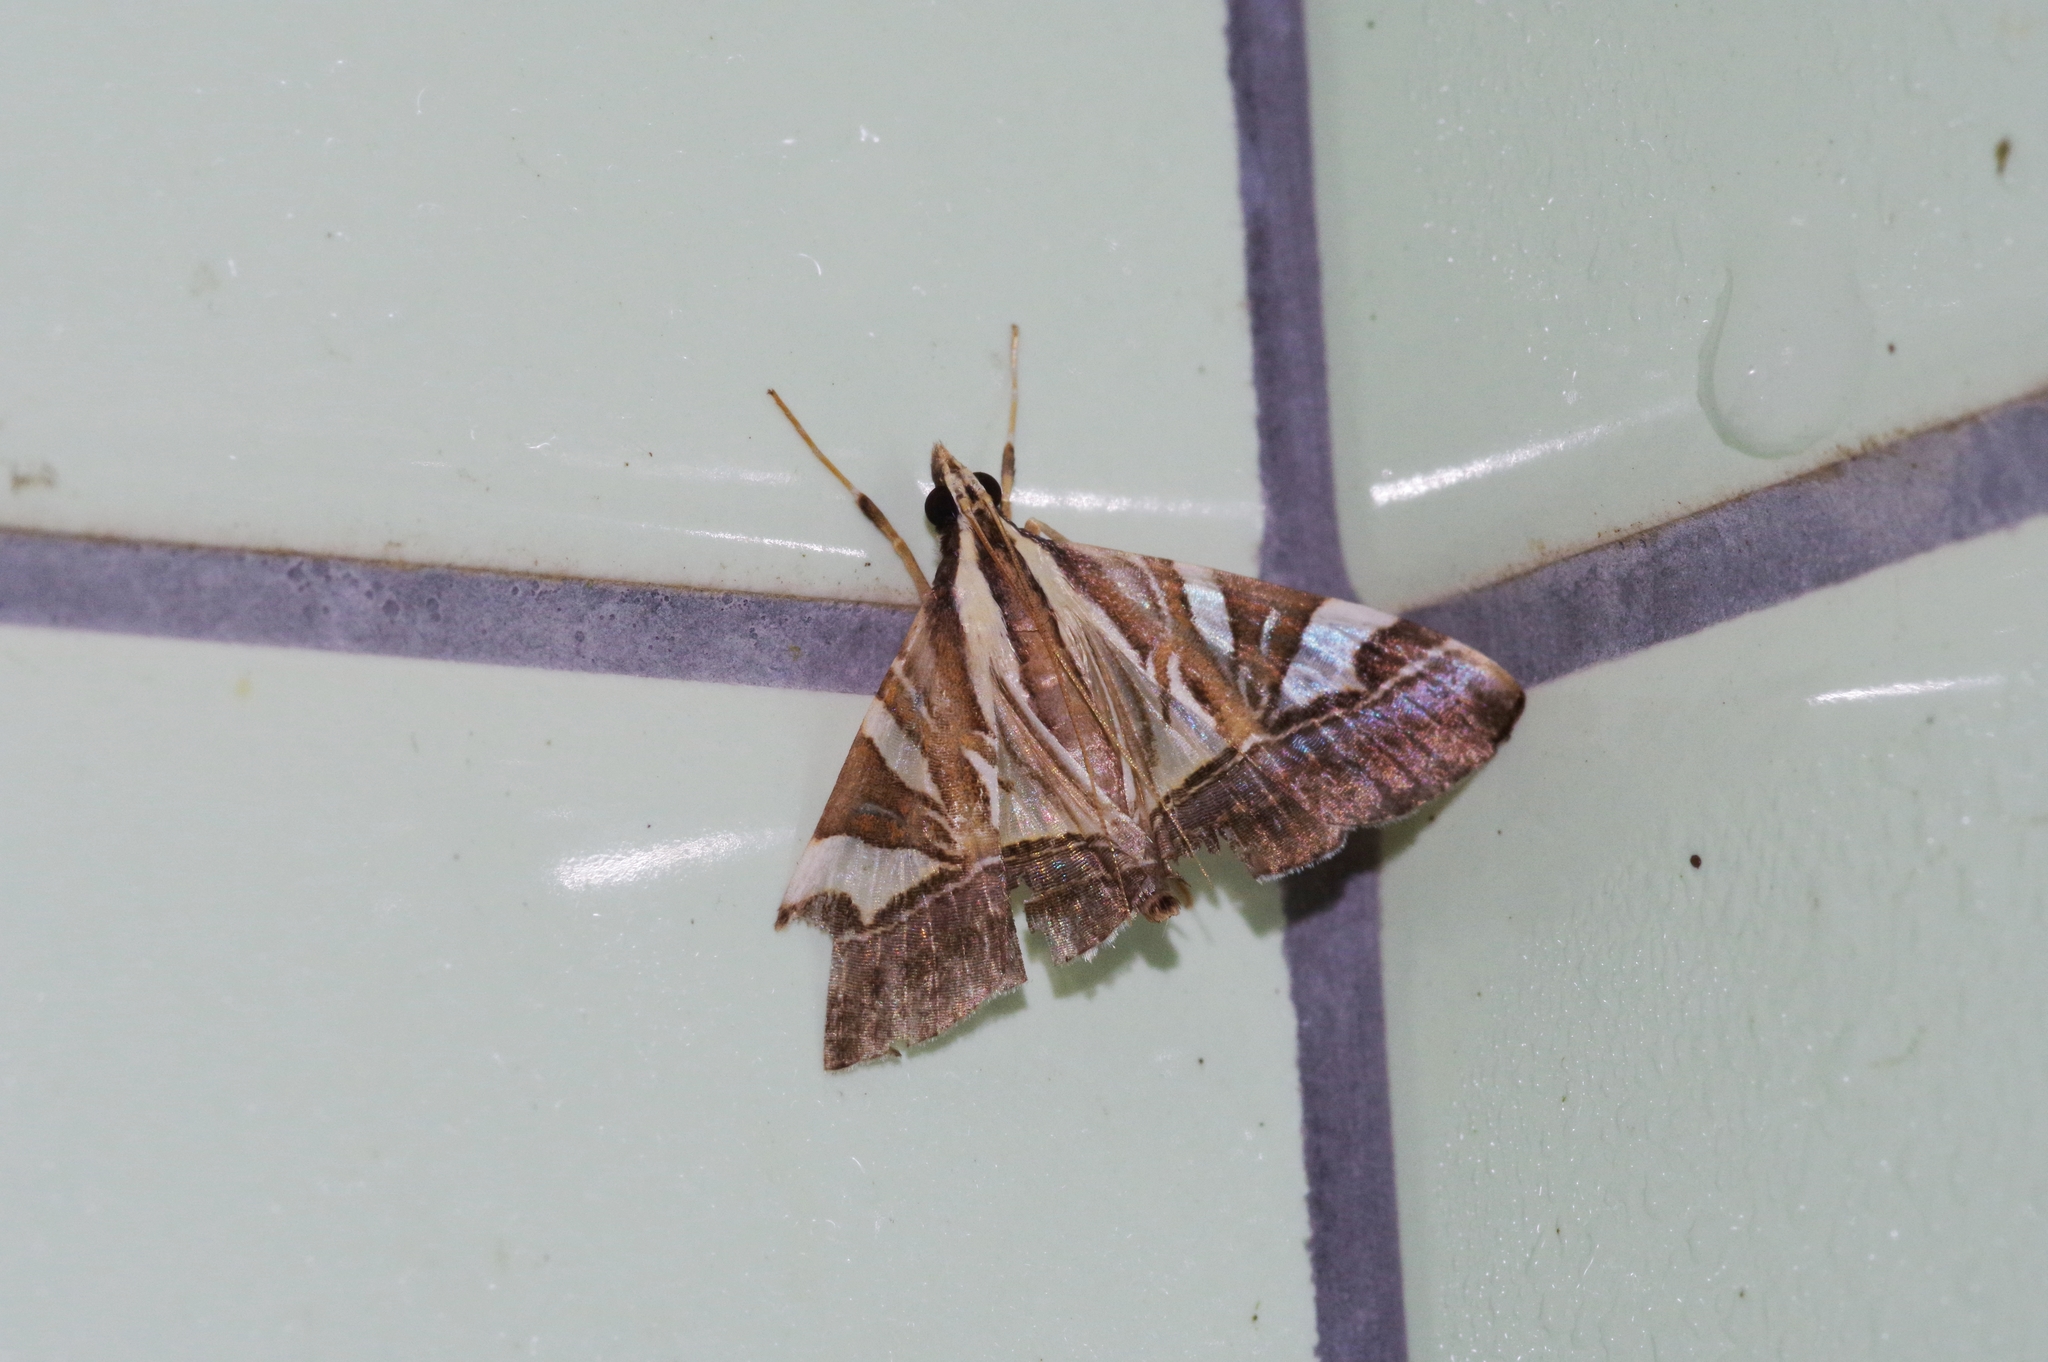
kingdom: Animalia
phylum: Arthropoda
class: Insecta
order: Lepidoptera
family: Crambidae
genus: Agrioglypta
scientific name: Agrioglypta itysalis
